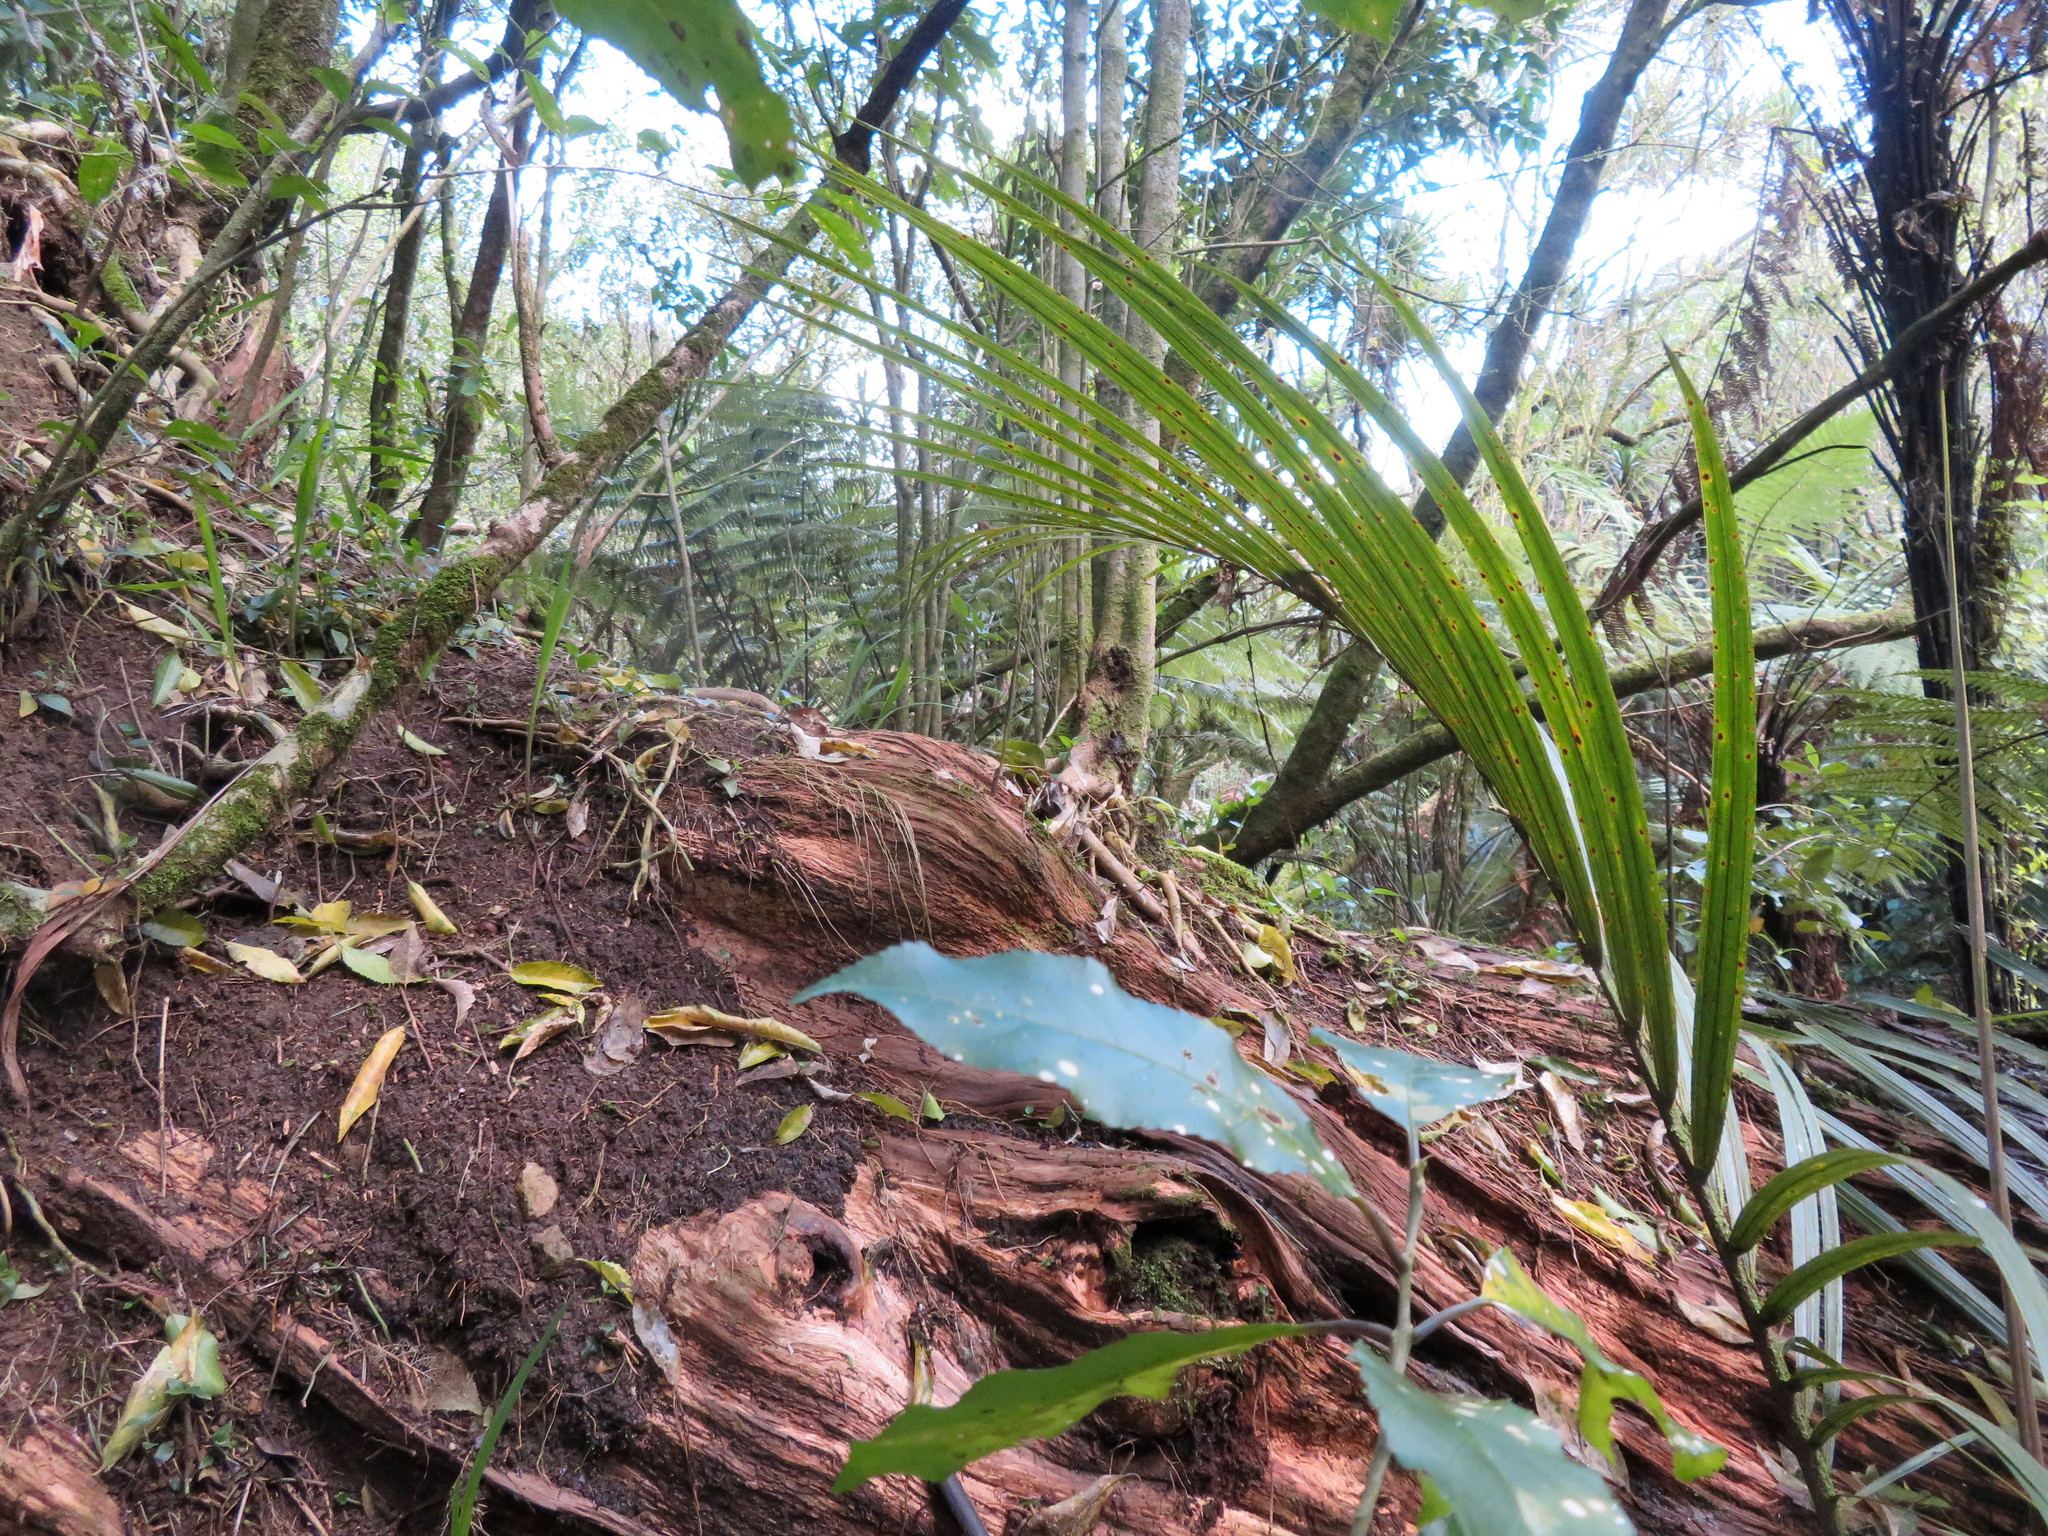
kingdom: Plantae
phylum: Tracheophyta
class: Liliopsida
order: Commelinales
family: Commelinaceae
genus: Tradescantia
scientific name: Tradescantia fluminensis
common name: Wandering-jew
